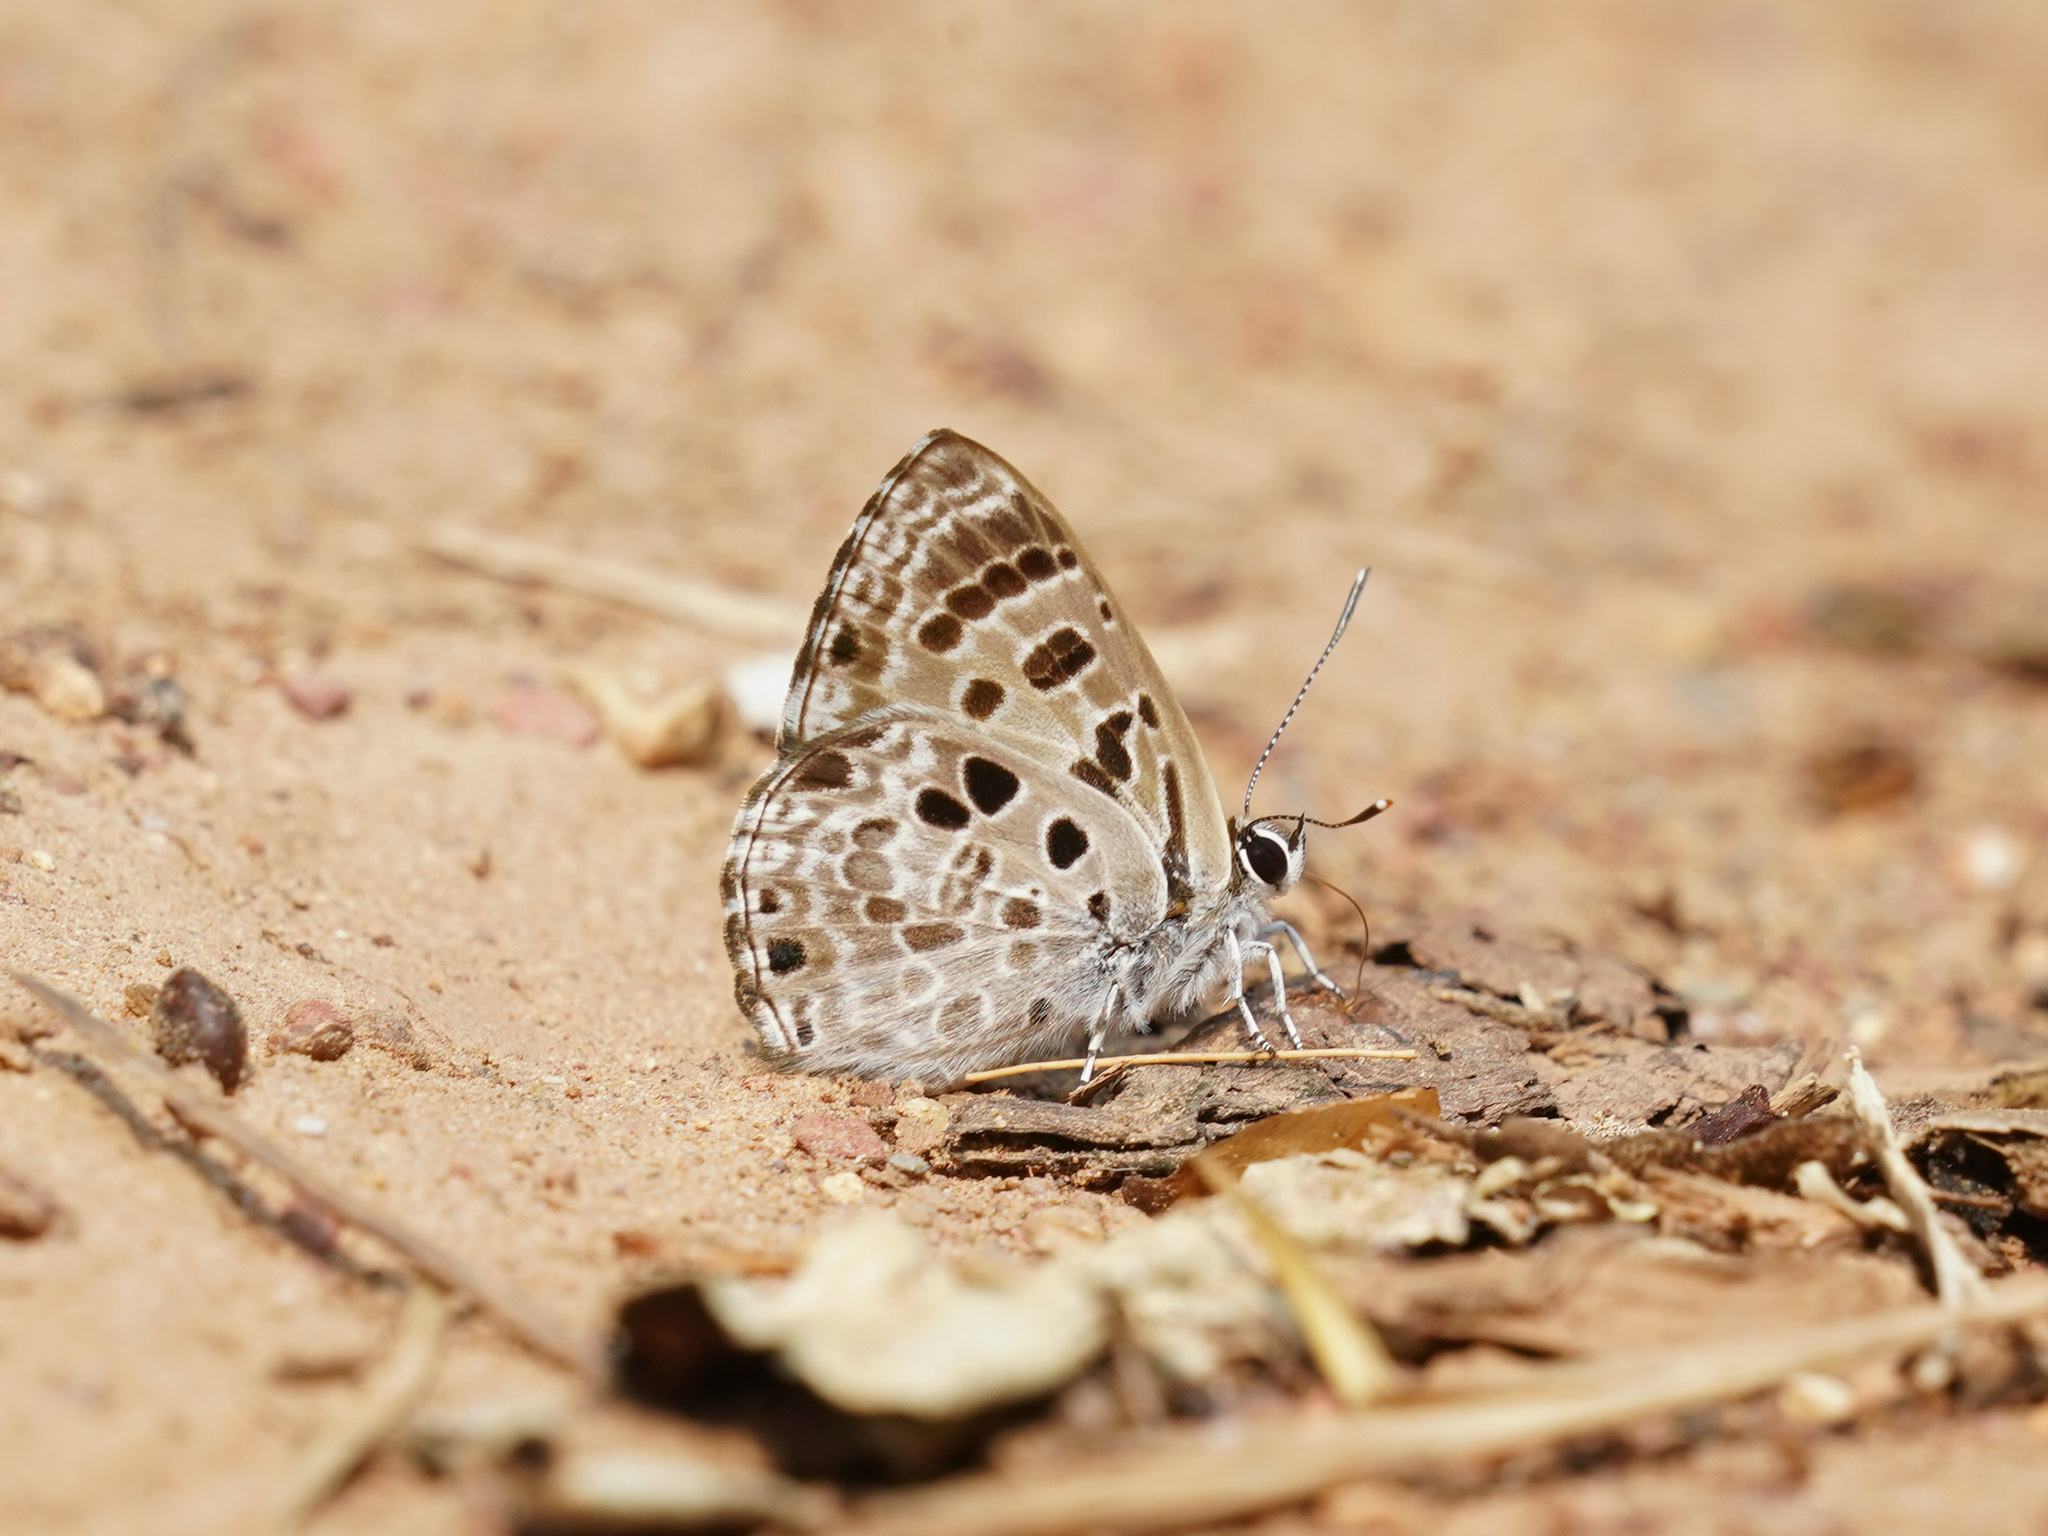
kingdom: Animalia
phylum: Arthropoda
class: Insecta
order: Lepidoptera
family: Lycaenidae
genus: Niphanda
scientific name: Niphanda asialis
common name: White-banded pierrot
